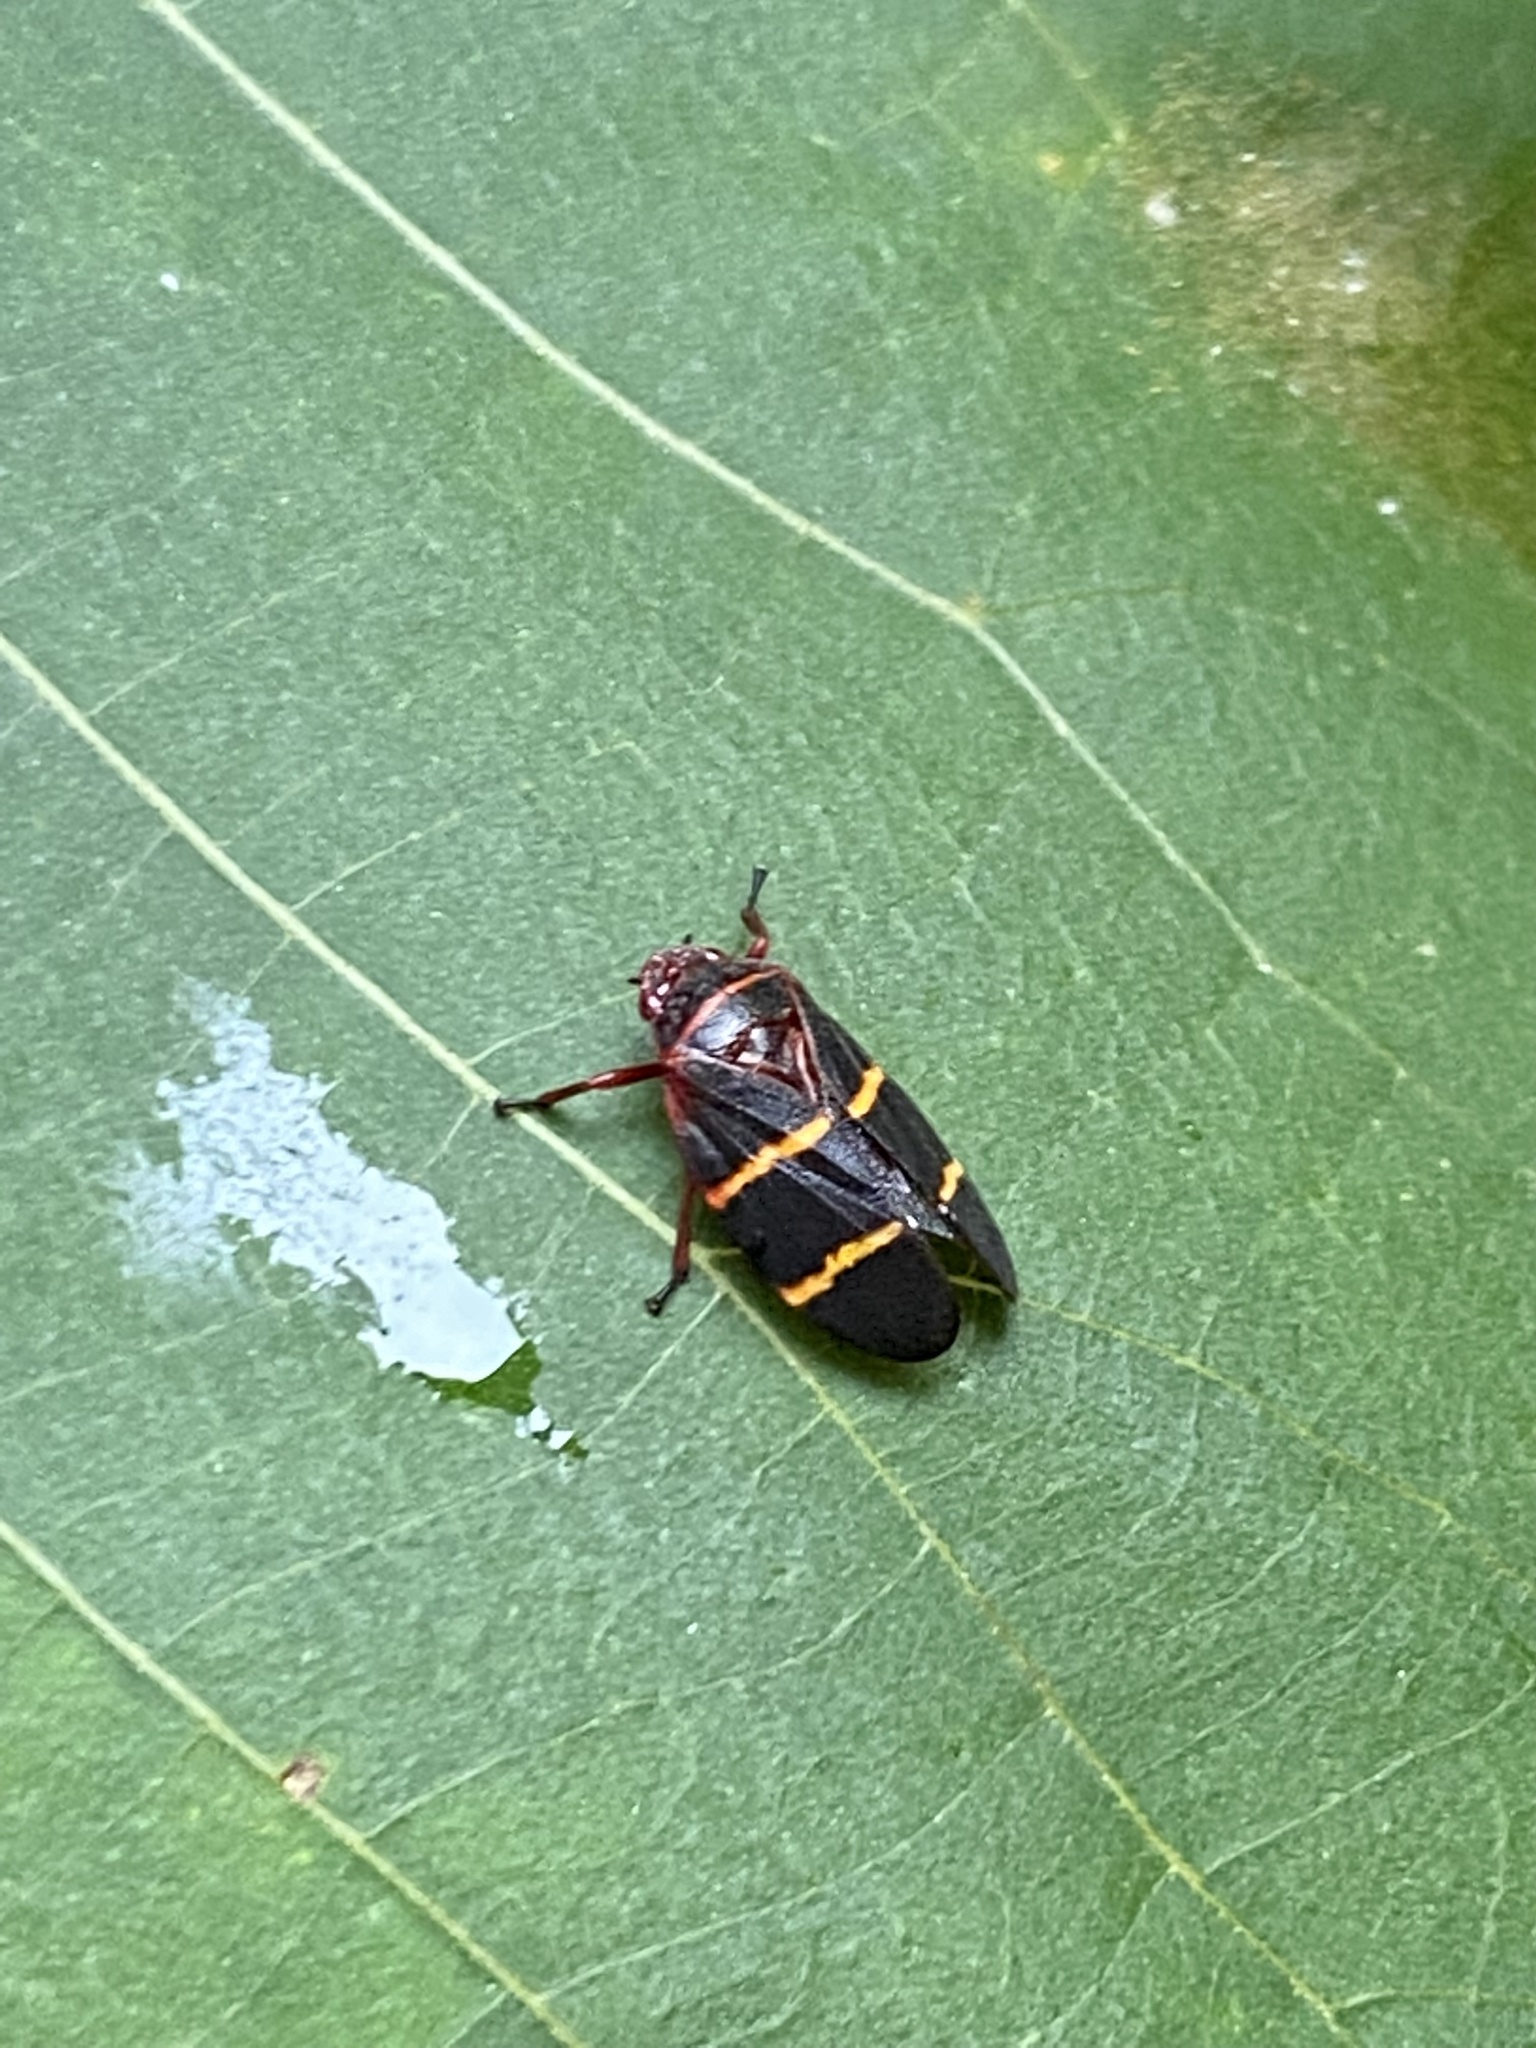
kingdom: Animalia
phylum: Arthropoda
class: Insecta
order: Hemiptera
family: Cercopidae
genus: Prosapia
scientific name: Prosapia bicincta
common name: Twolined spittlebug
